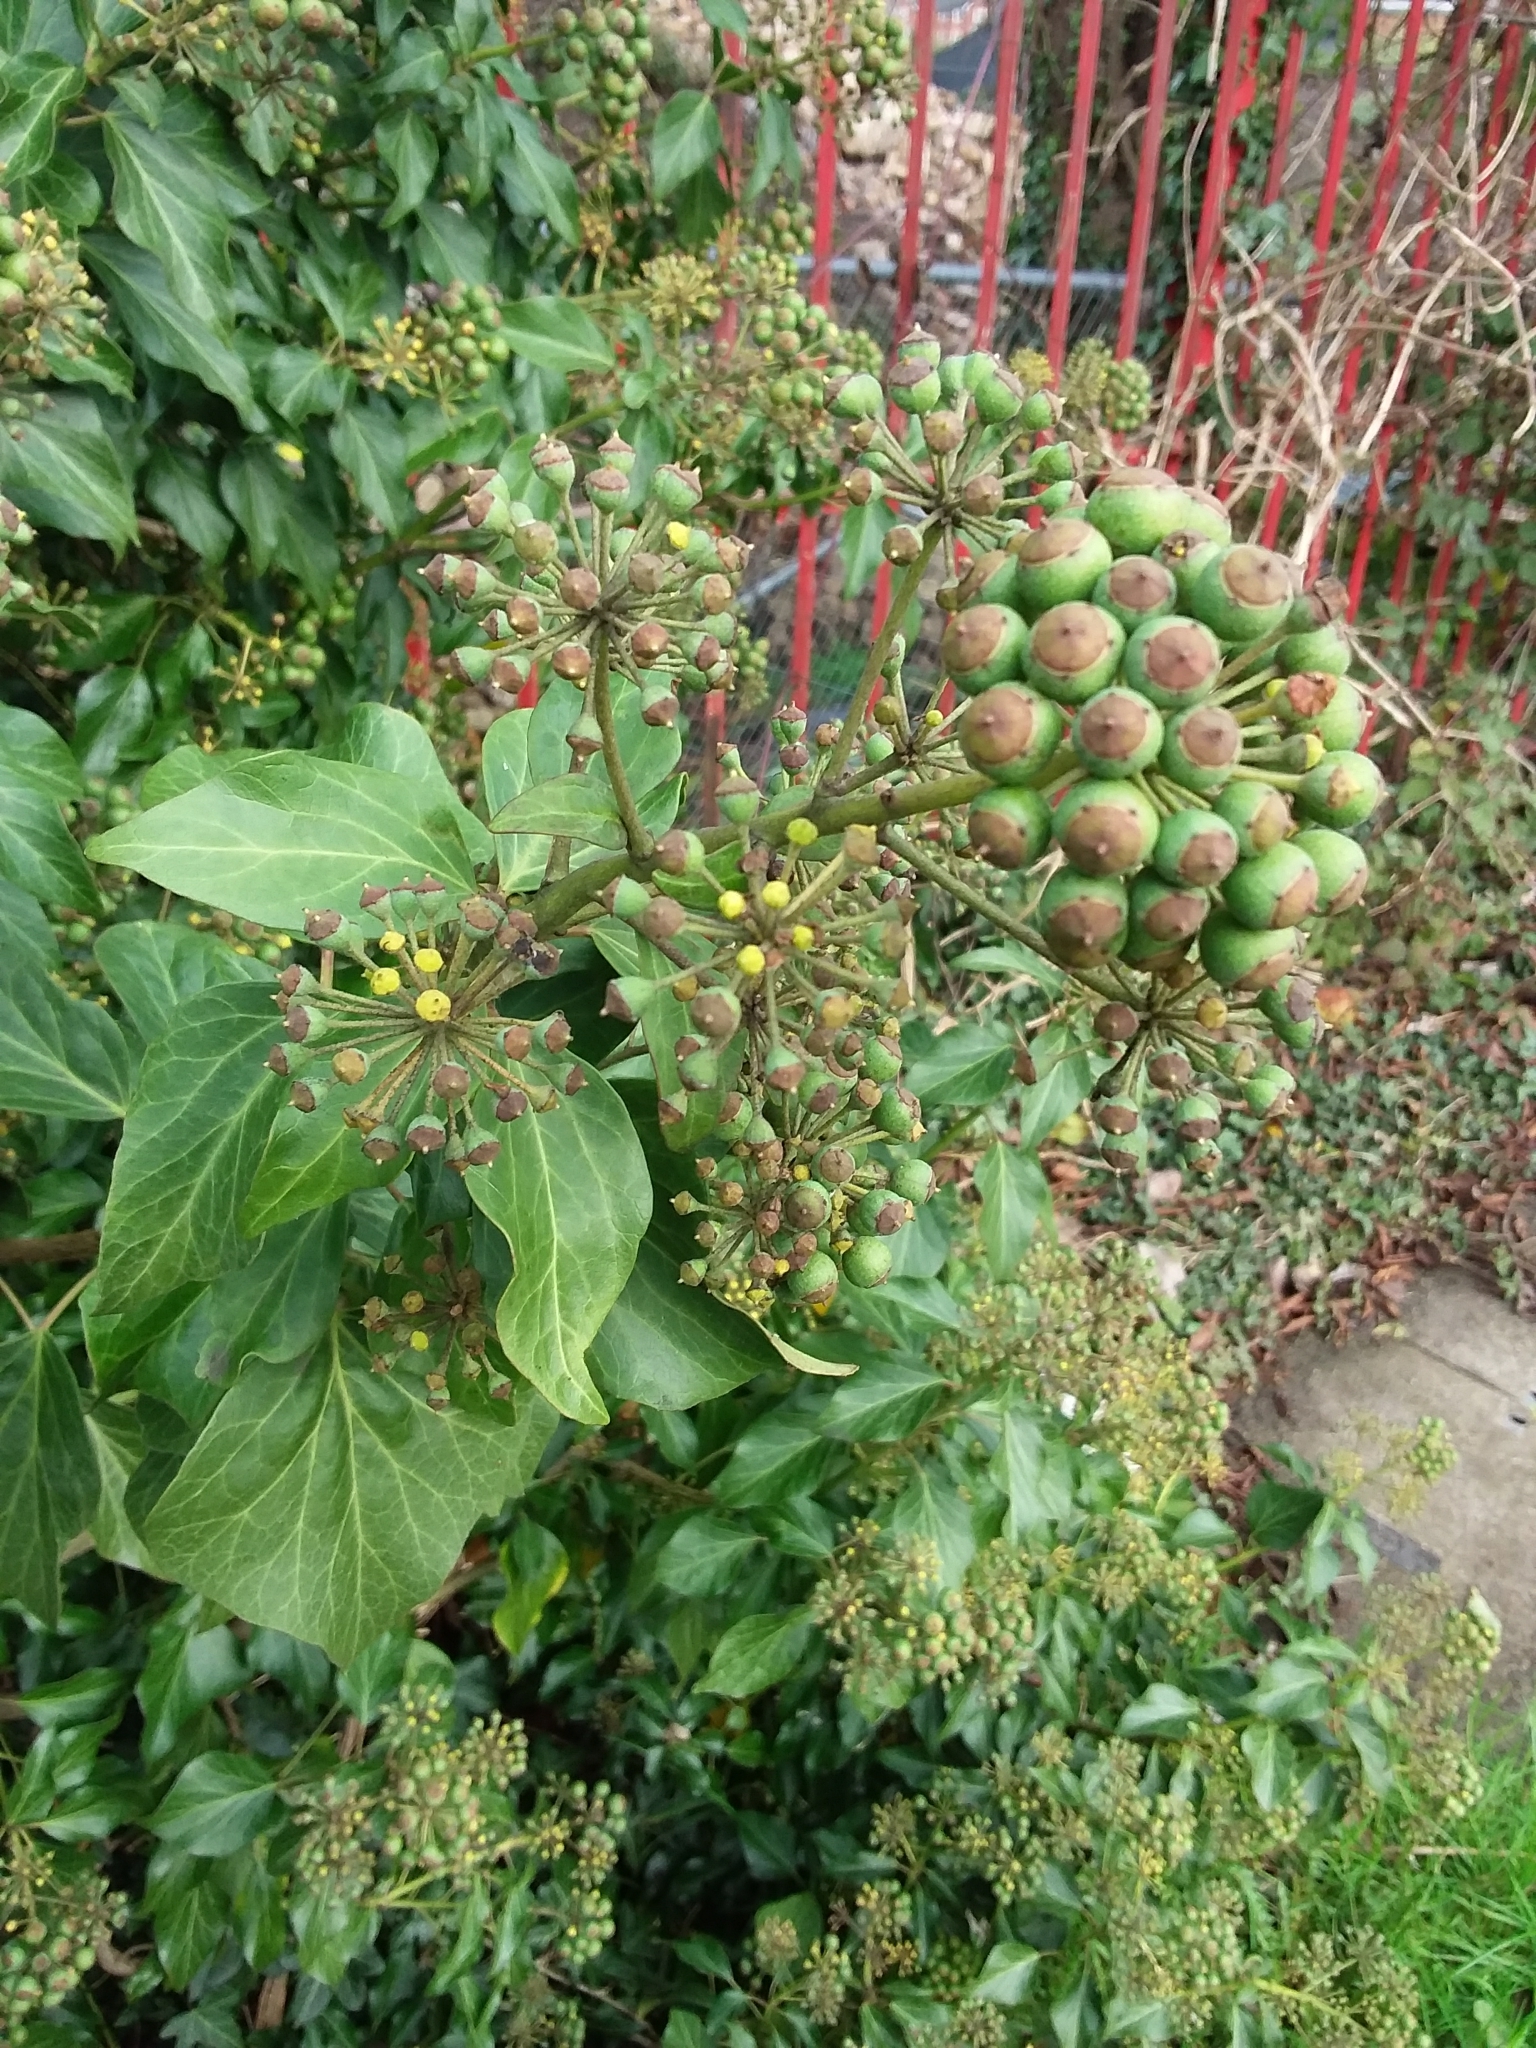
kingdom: Plantae
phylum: Tracheophyta
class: Magnoliopsida
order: Apiales
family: Araliaceae
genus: Hedera
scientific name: Hedera helix
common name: Ivy
